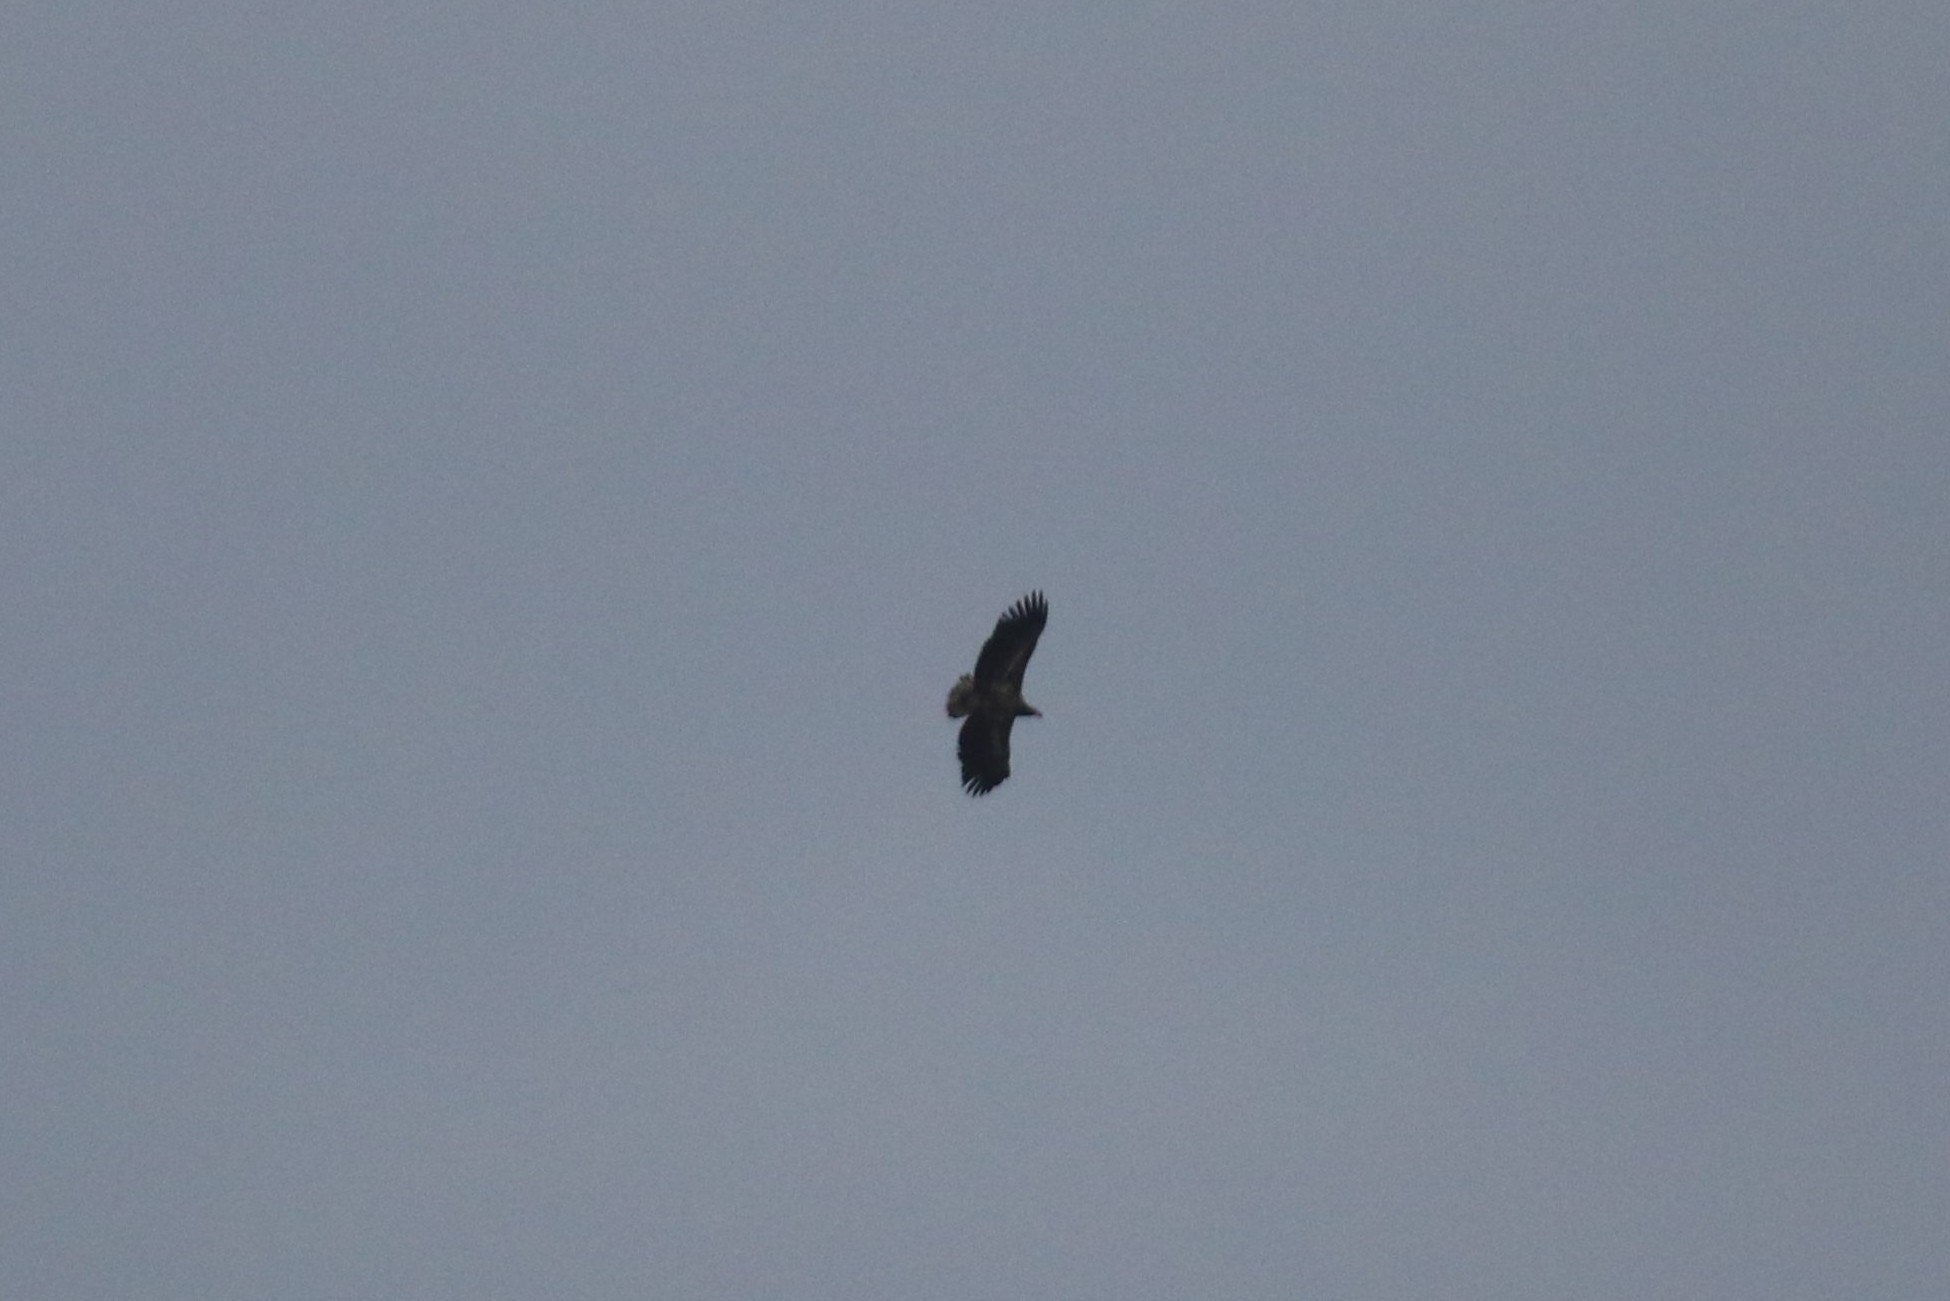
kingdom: Animalia
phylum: Chordata
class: Aves
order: Accipitriformes
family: Accipitridae
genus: Haliaeetus
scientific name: Haliaeetus albicilla
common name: White-tailed eagle
